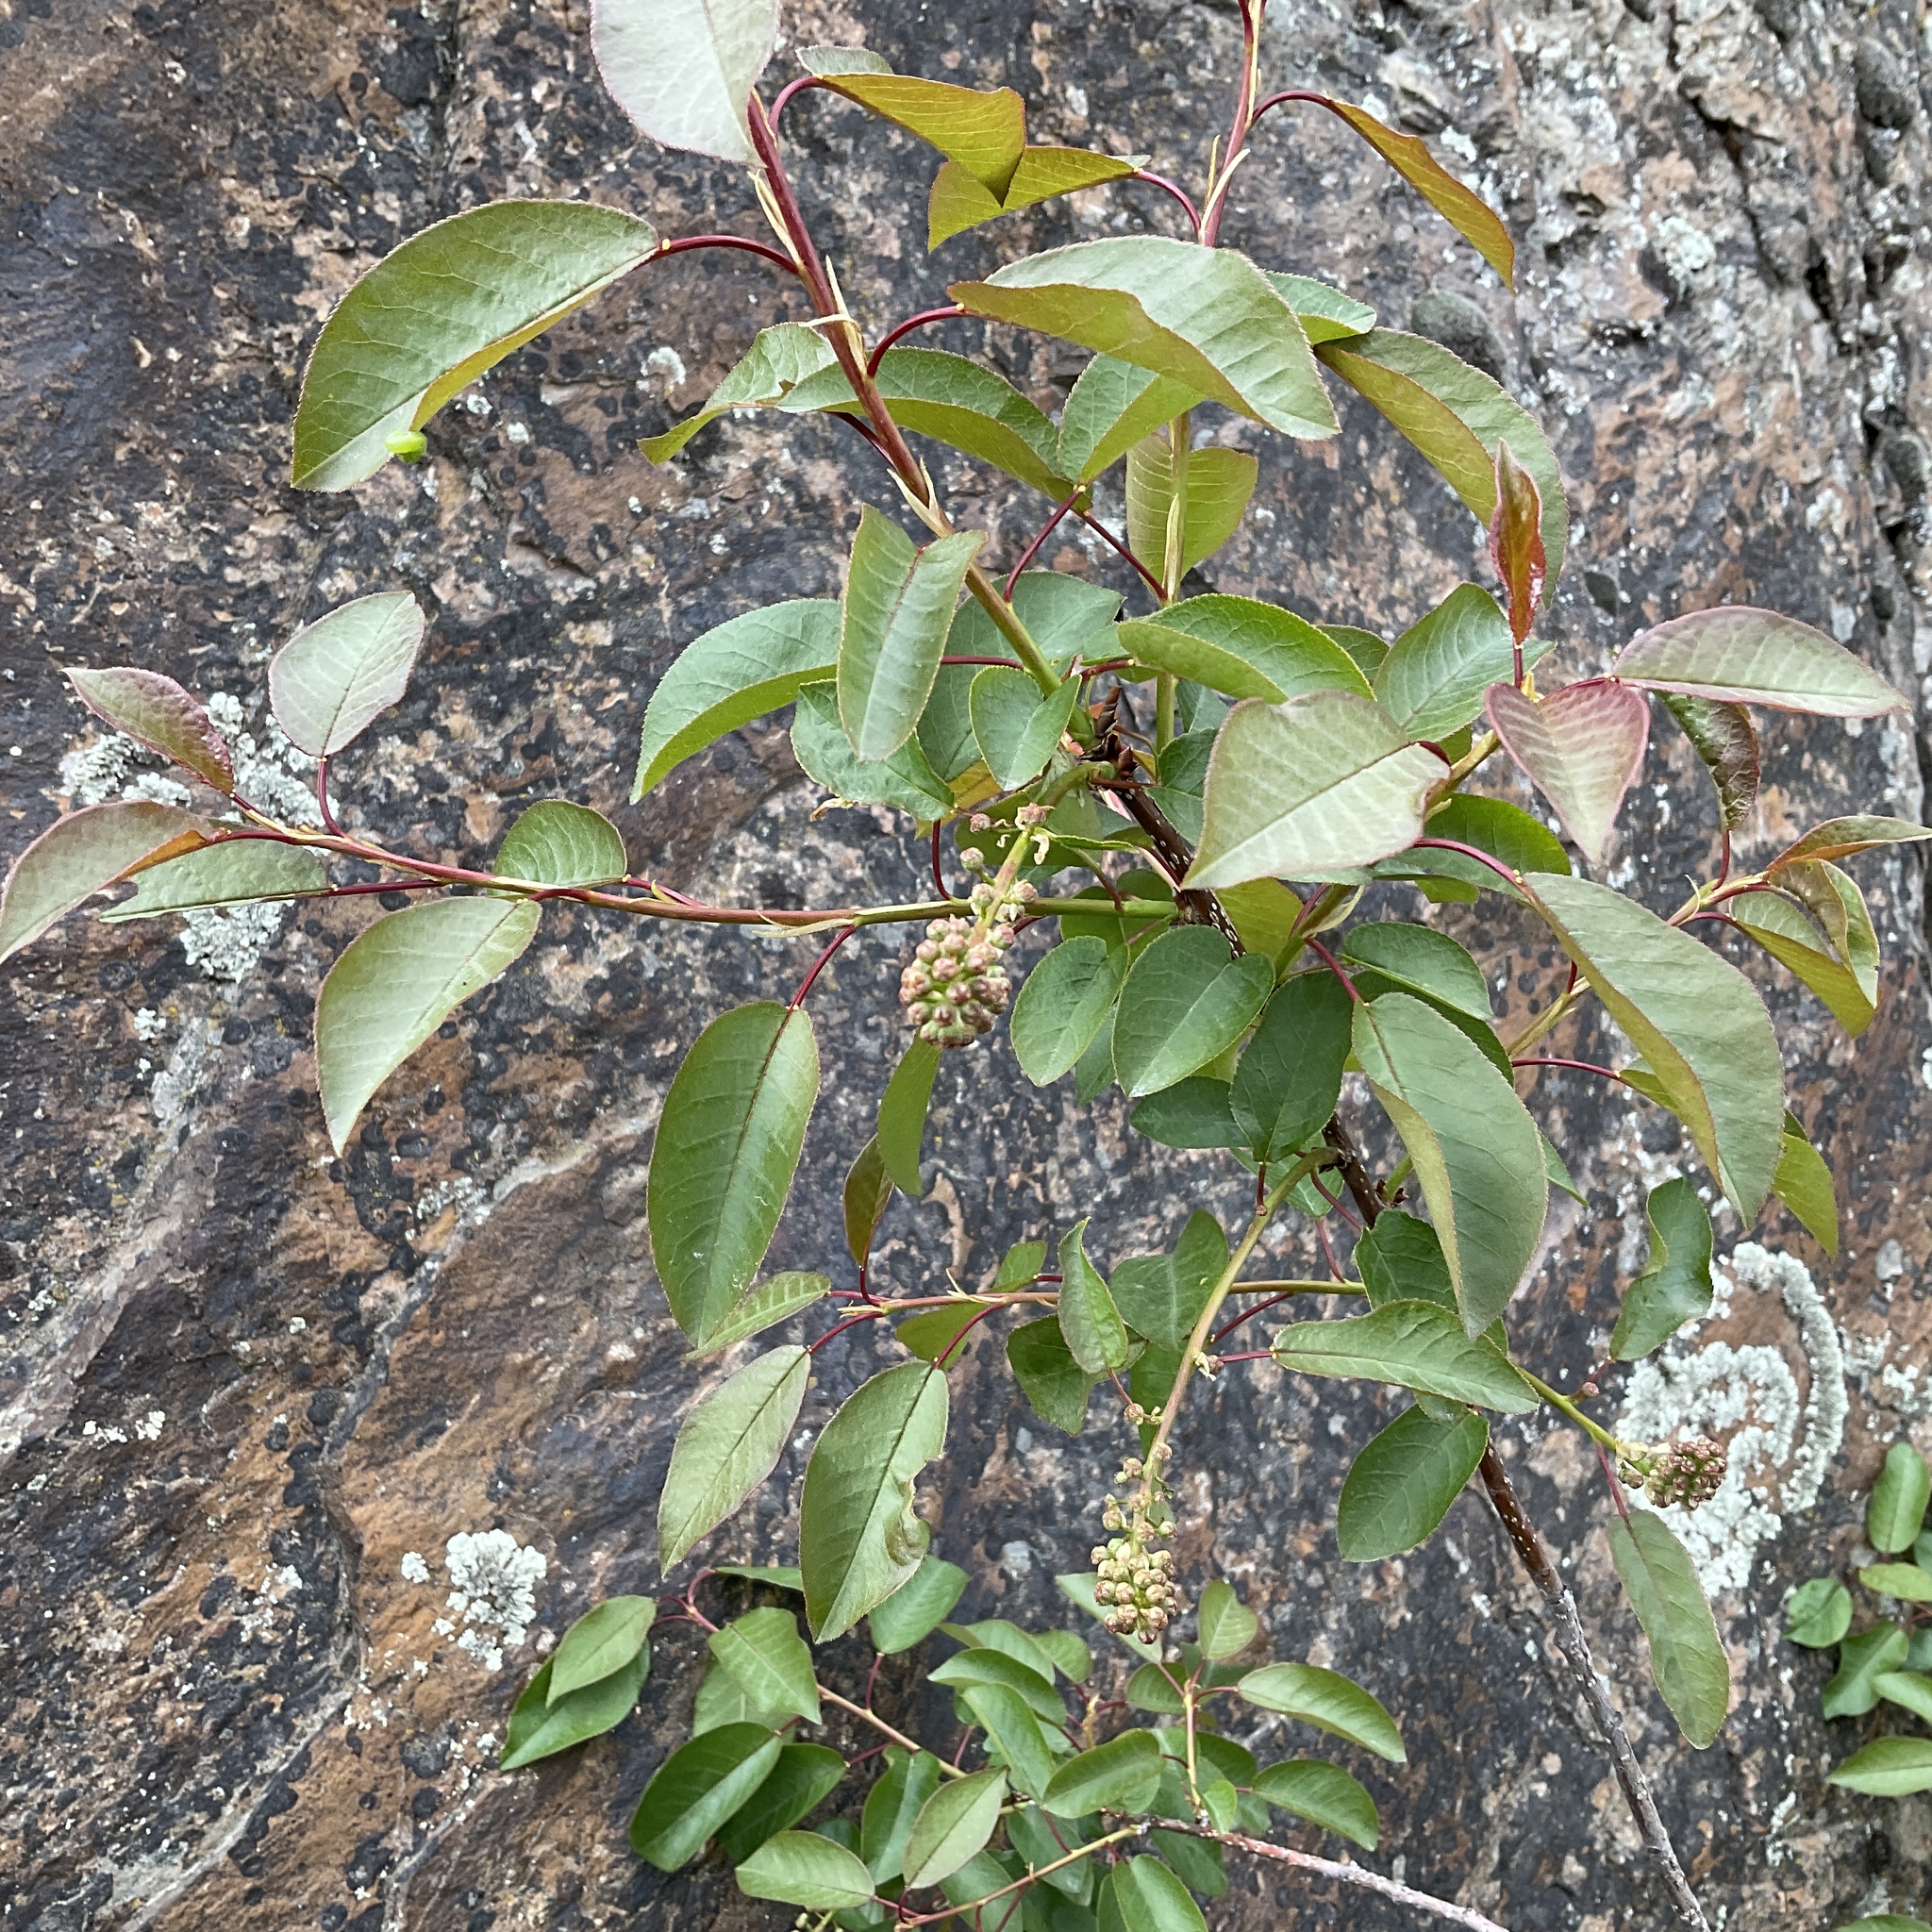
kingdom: Plantae
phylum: Tracheophyta
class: Magnoliopsida
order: Rosales
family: Rosaceae
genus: Prunus
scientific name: Prunus virginiana
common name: Chokecherry
